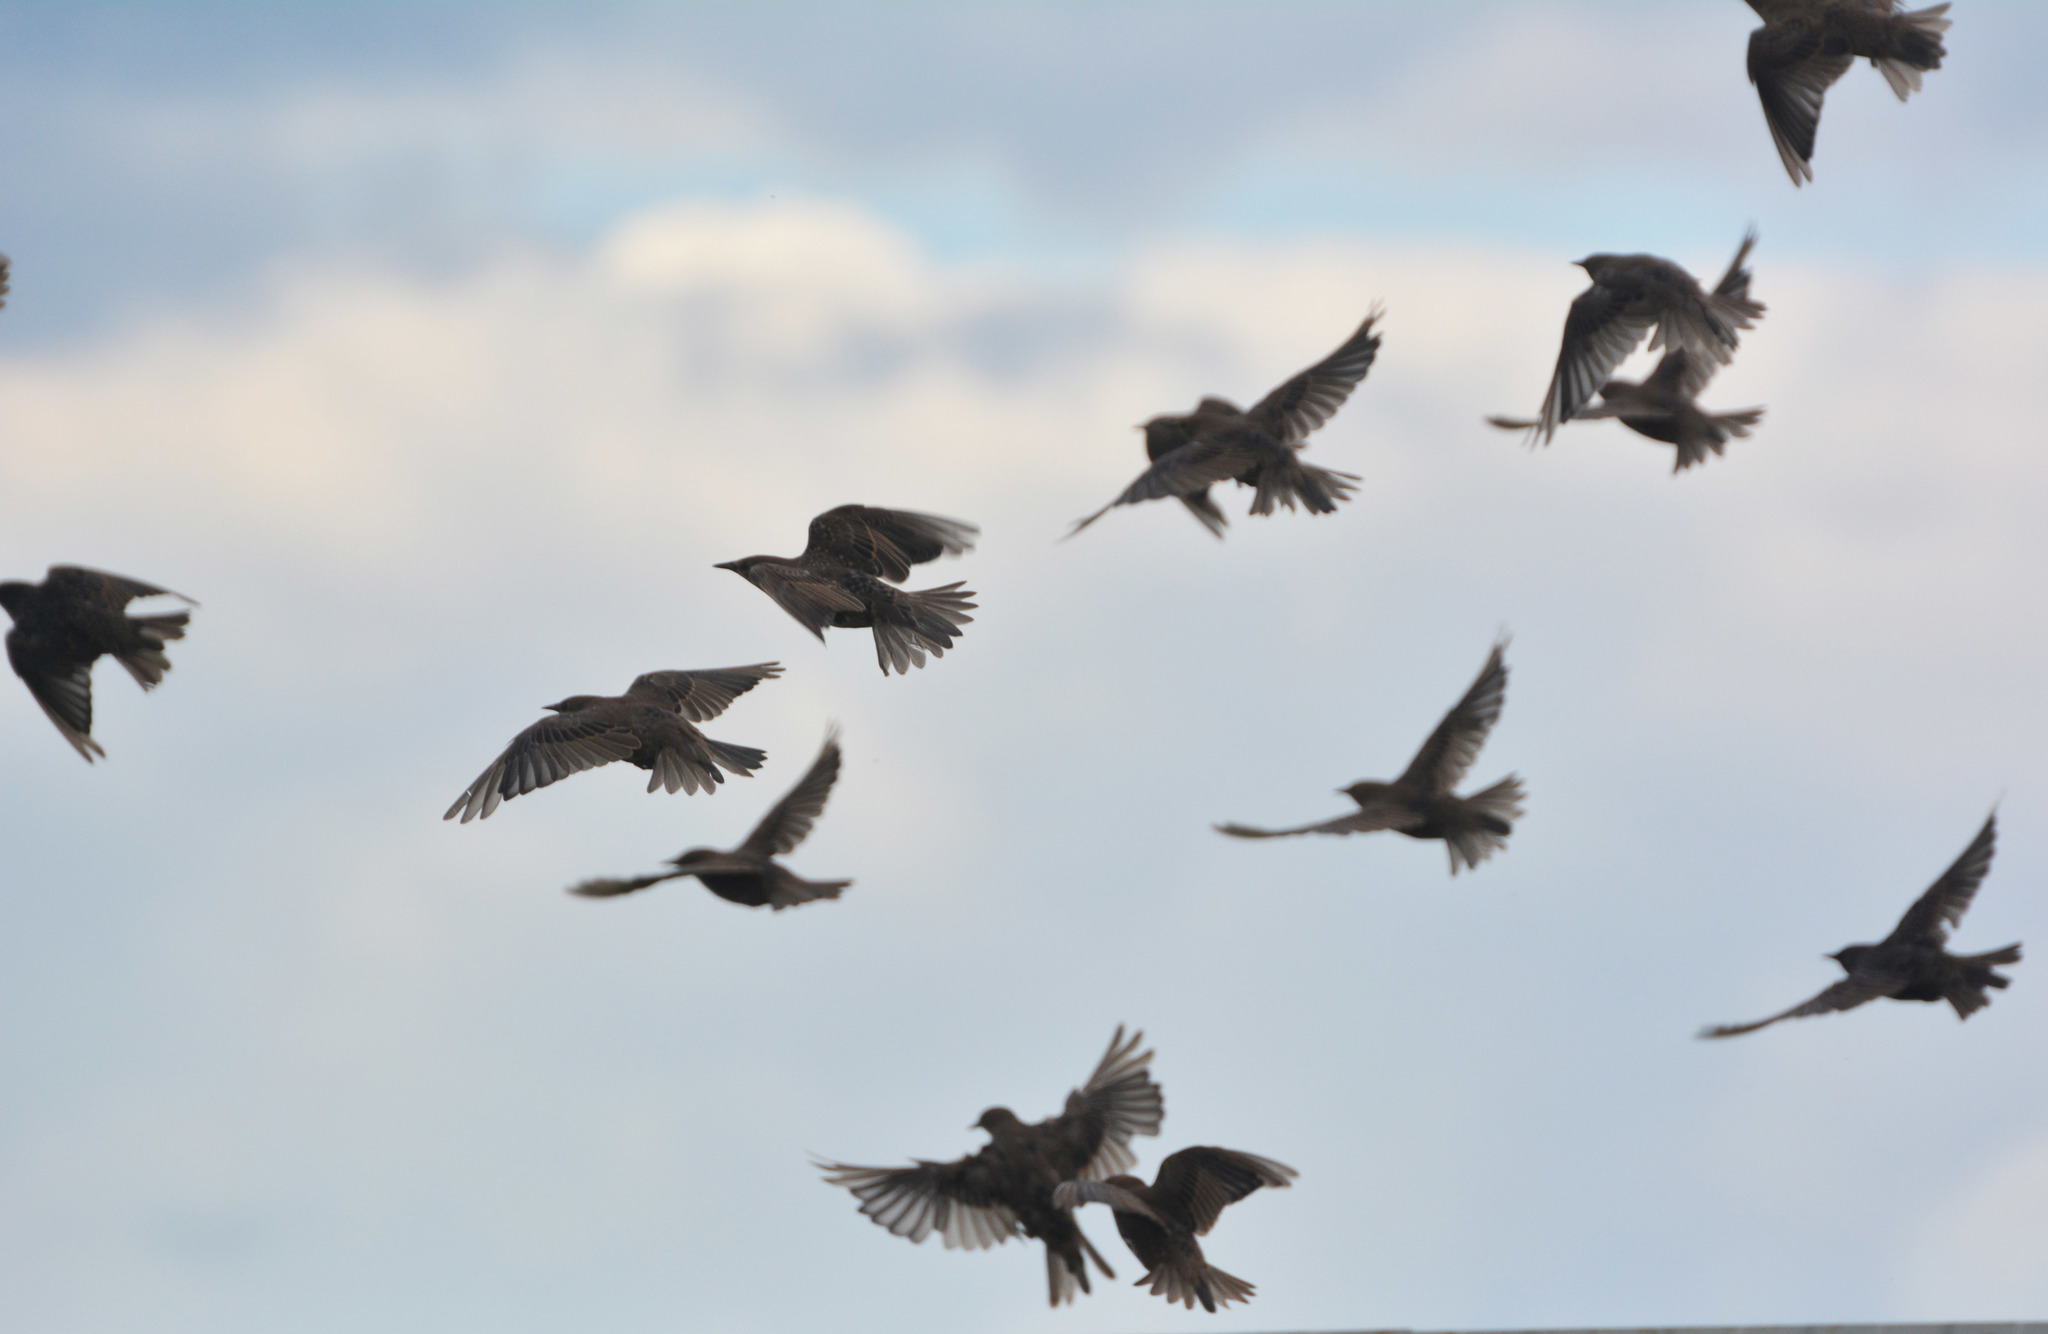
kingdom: Animalia
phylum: Chordata
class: Aves
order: Passeriformes
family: Sturnidae
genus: Sturnus
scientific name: Sturnus vulgaris
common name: Common starling
